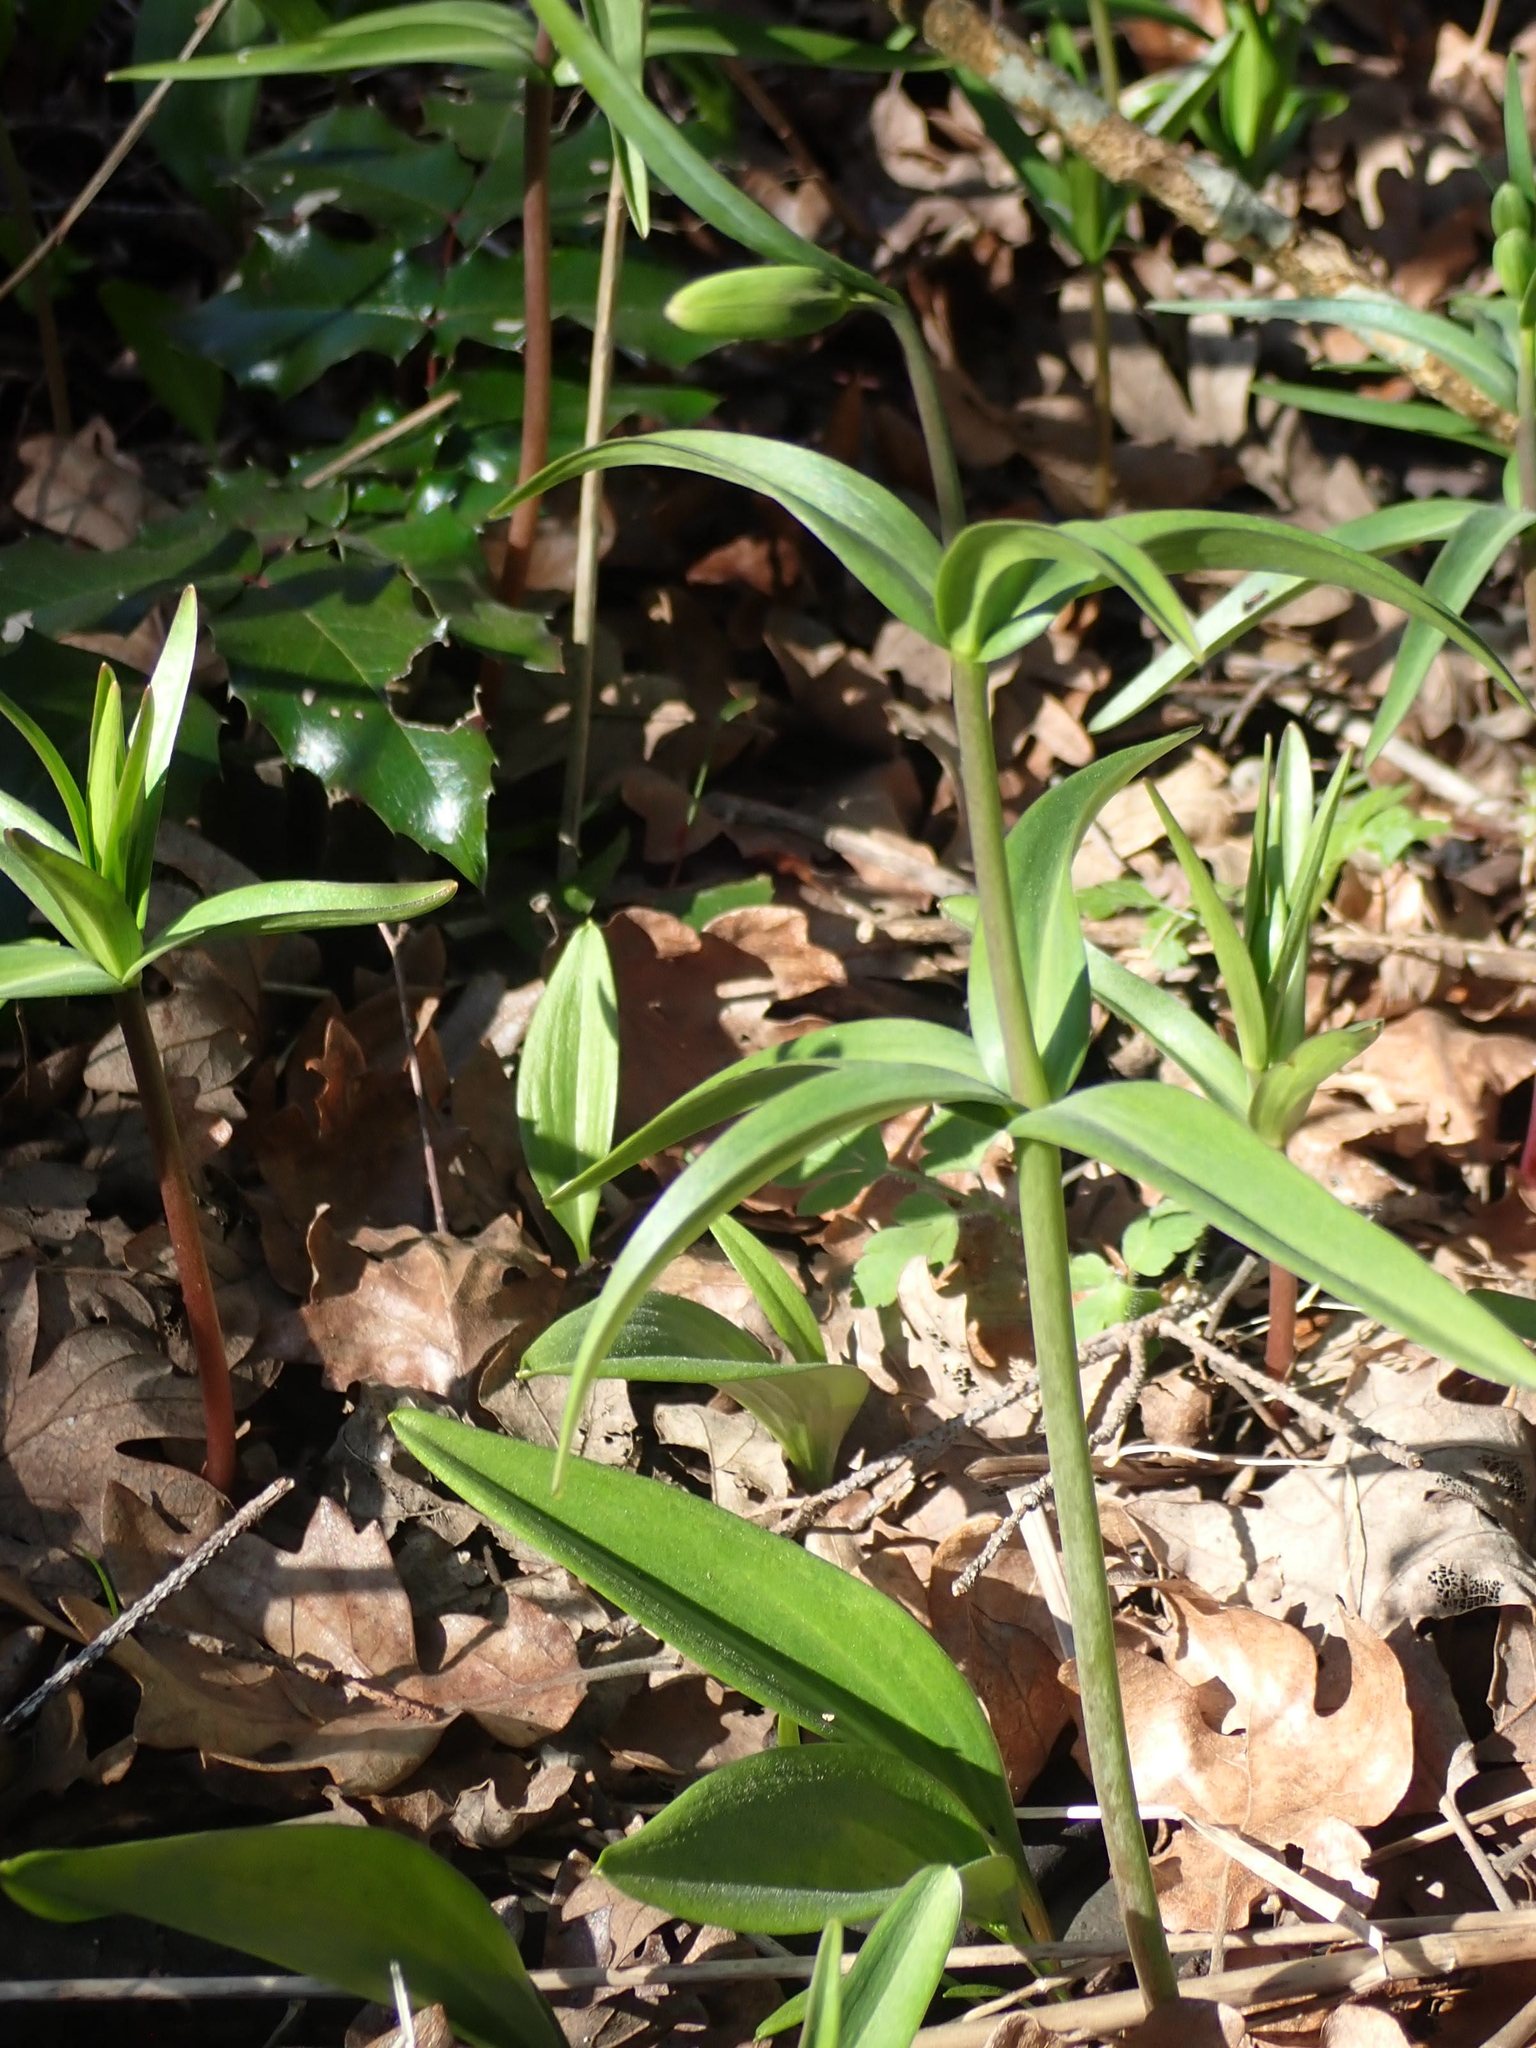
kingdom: Plantae
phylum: Tracheophyta
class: Liliopsida
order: Liliales
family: Liliaceae
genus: Fritillaria
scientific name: Fritillaria affinis
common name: Ojai fritillary
